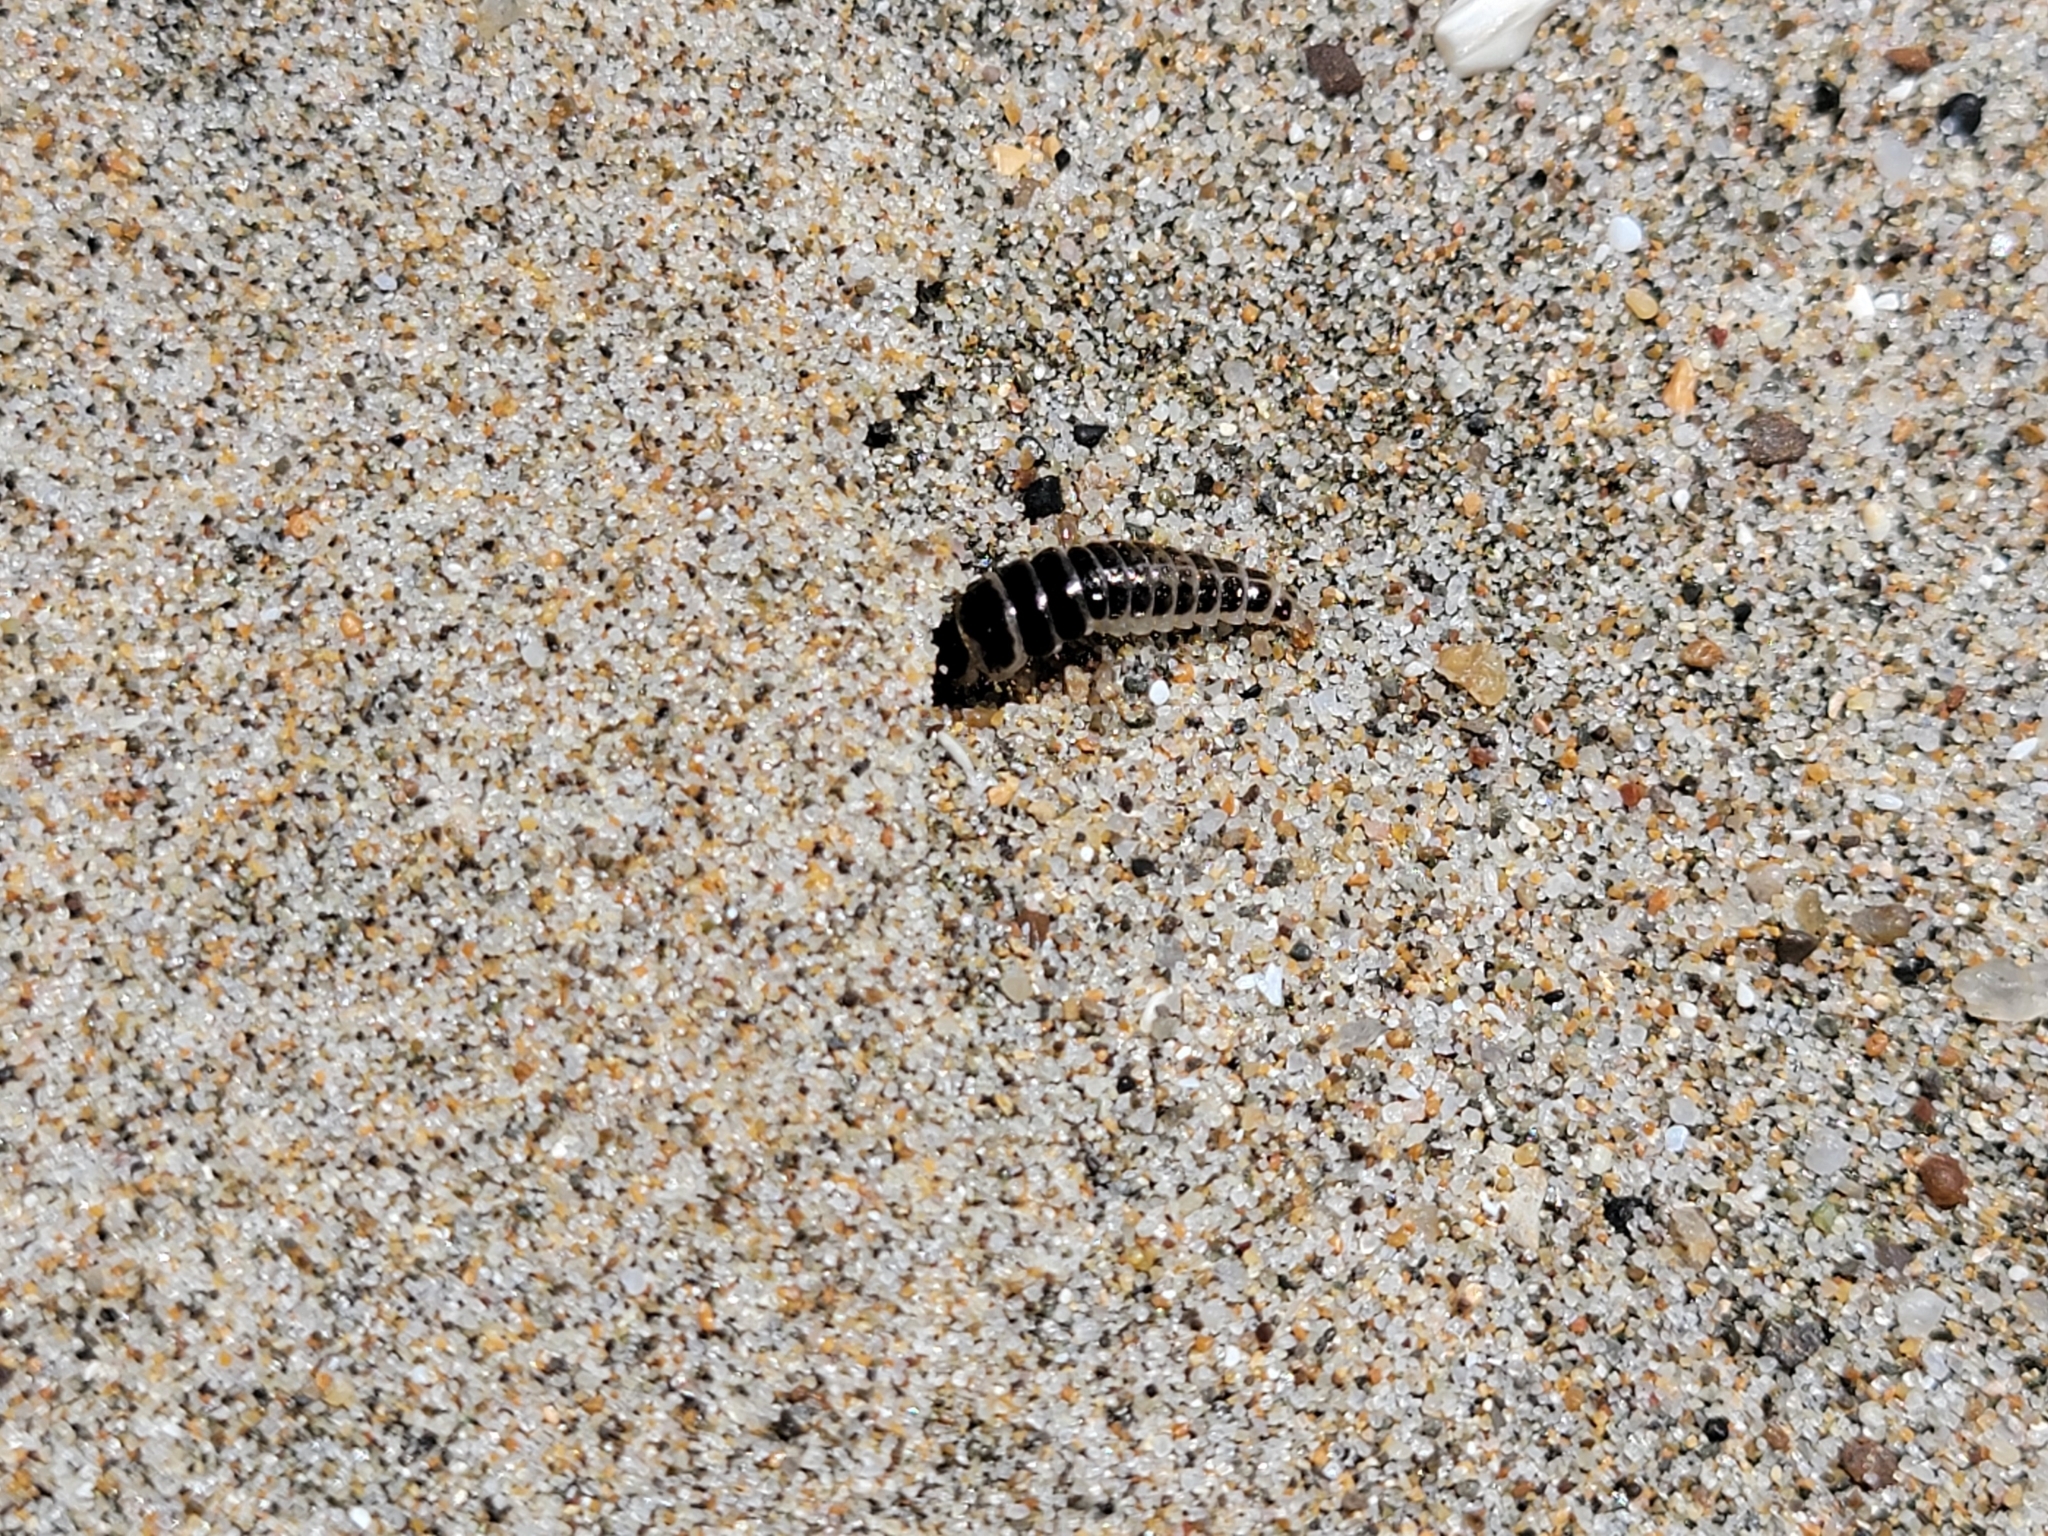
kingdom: Animalia
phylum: Arthropoda
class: Insecta
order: Coleoptera
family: Staphylinidae
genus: Thinopinus
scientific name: Thinopinus pictus
